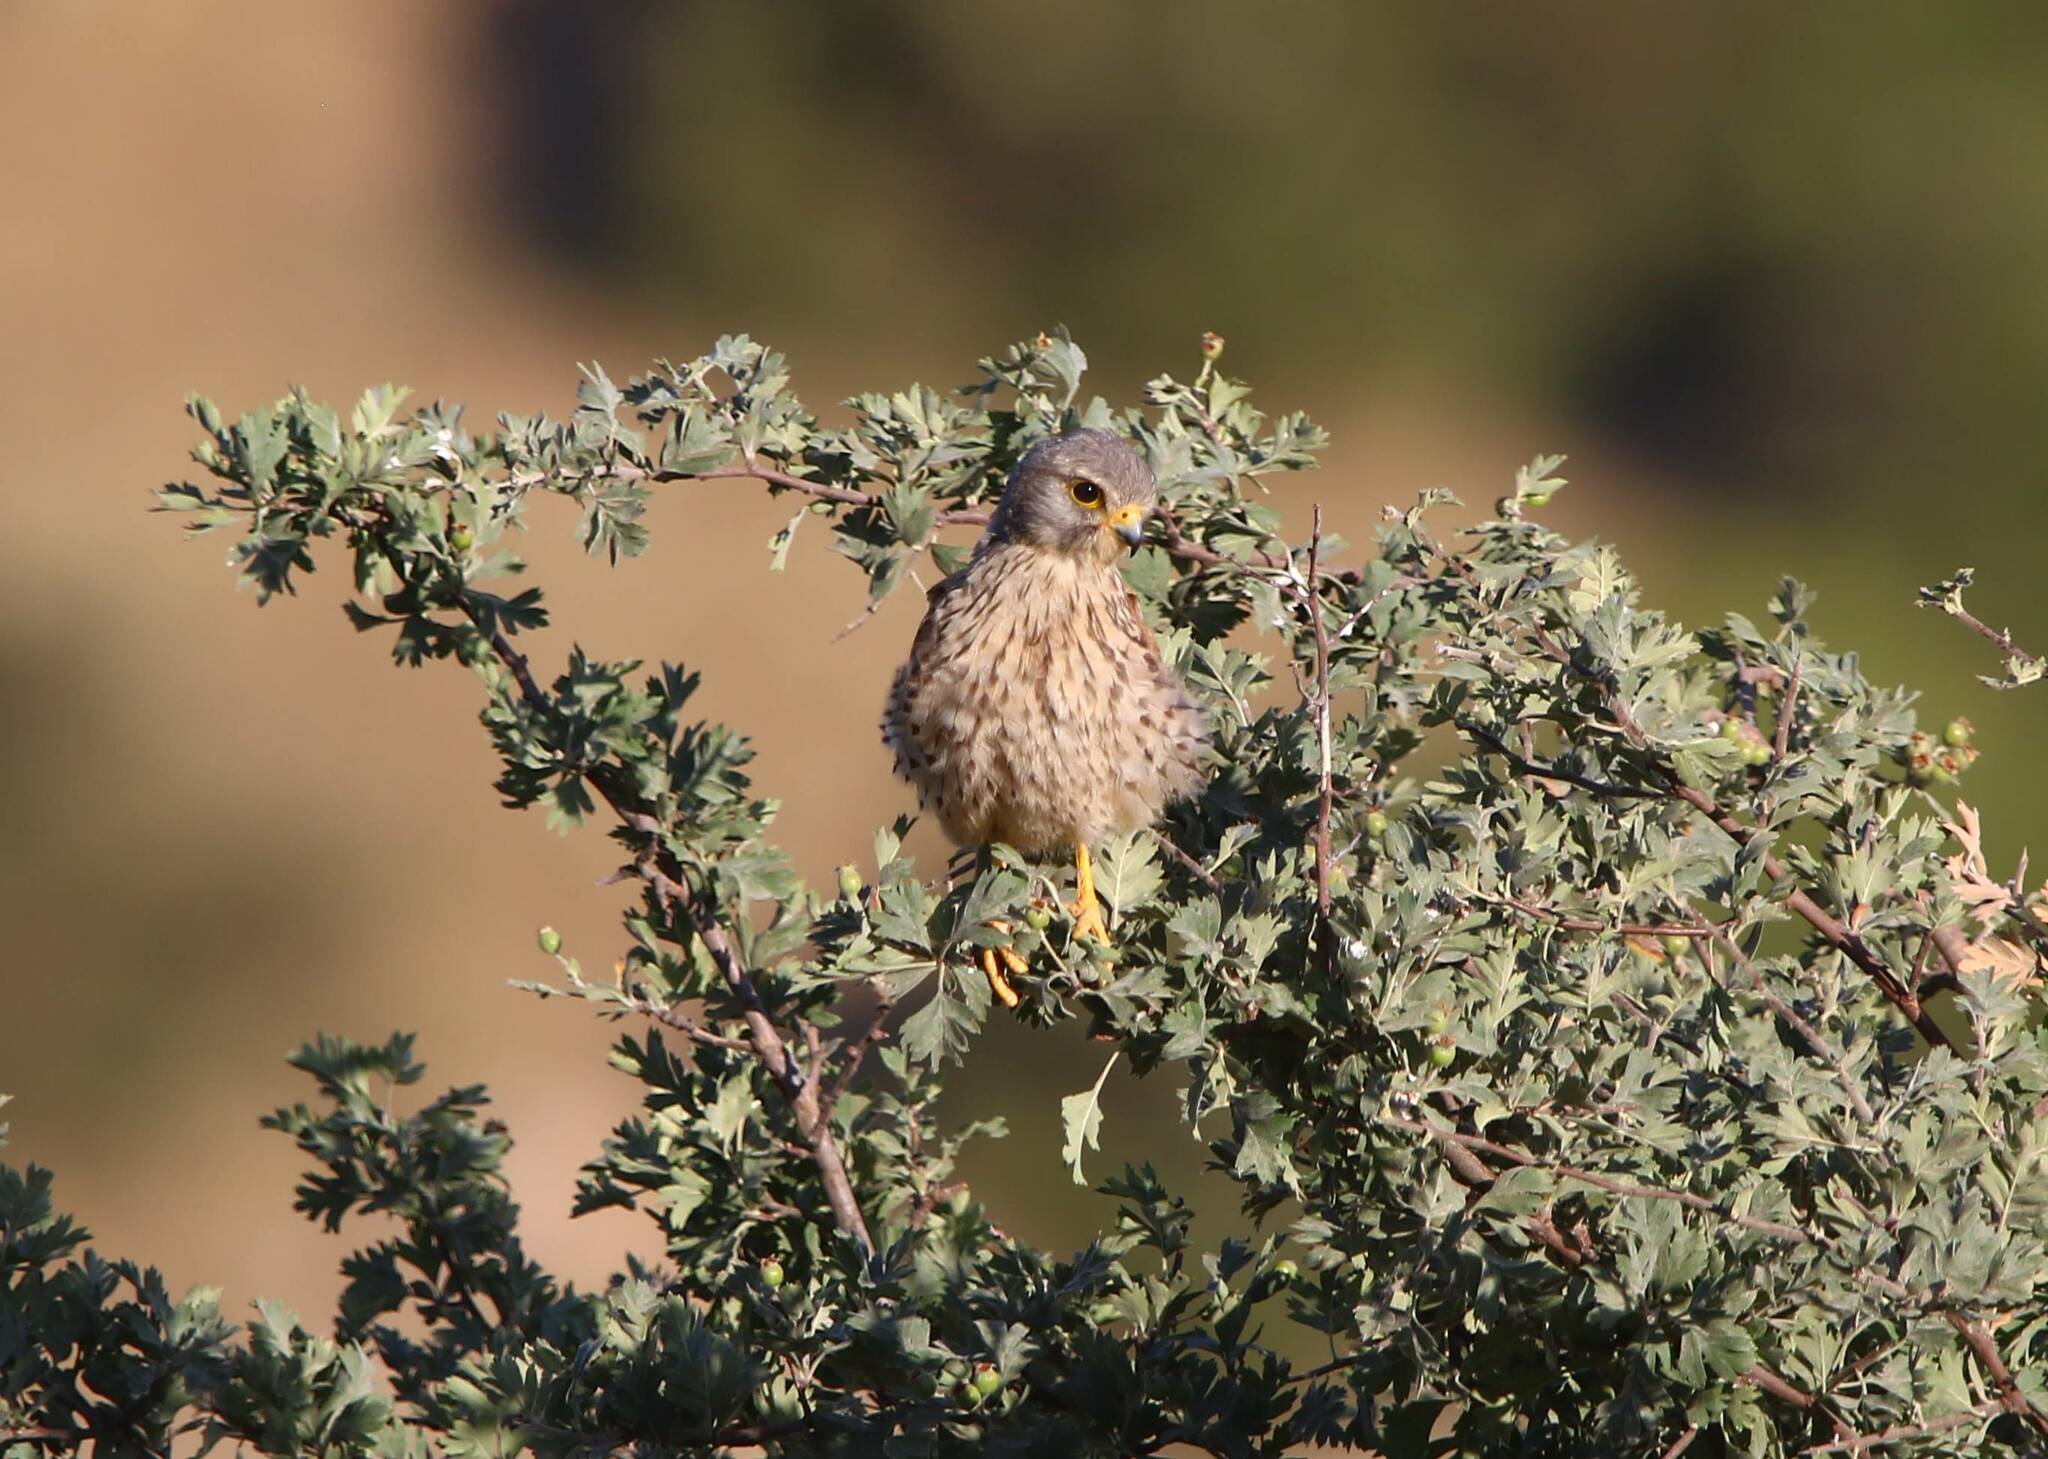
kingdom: Animalia
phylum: Chordata
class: Aves
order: Falconiformes
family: Falconidae
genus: Falco
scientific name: Falco tinnunculus
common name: Common kestrel
